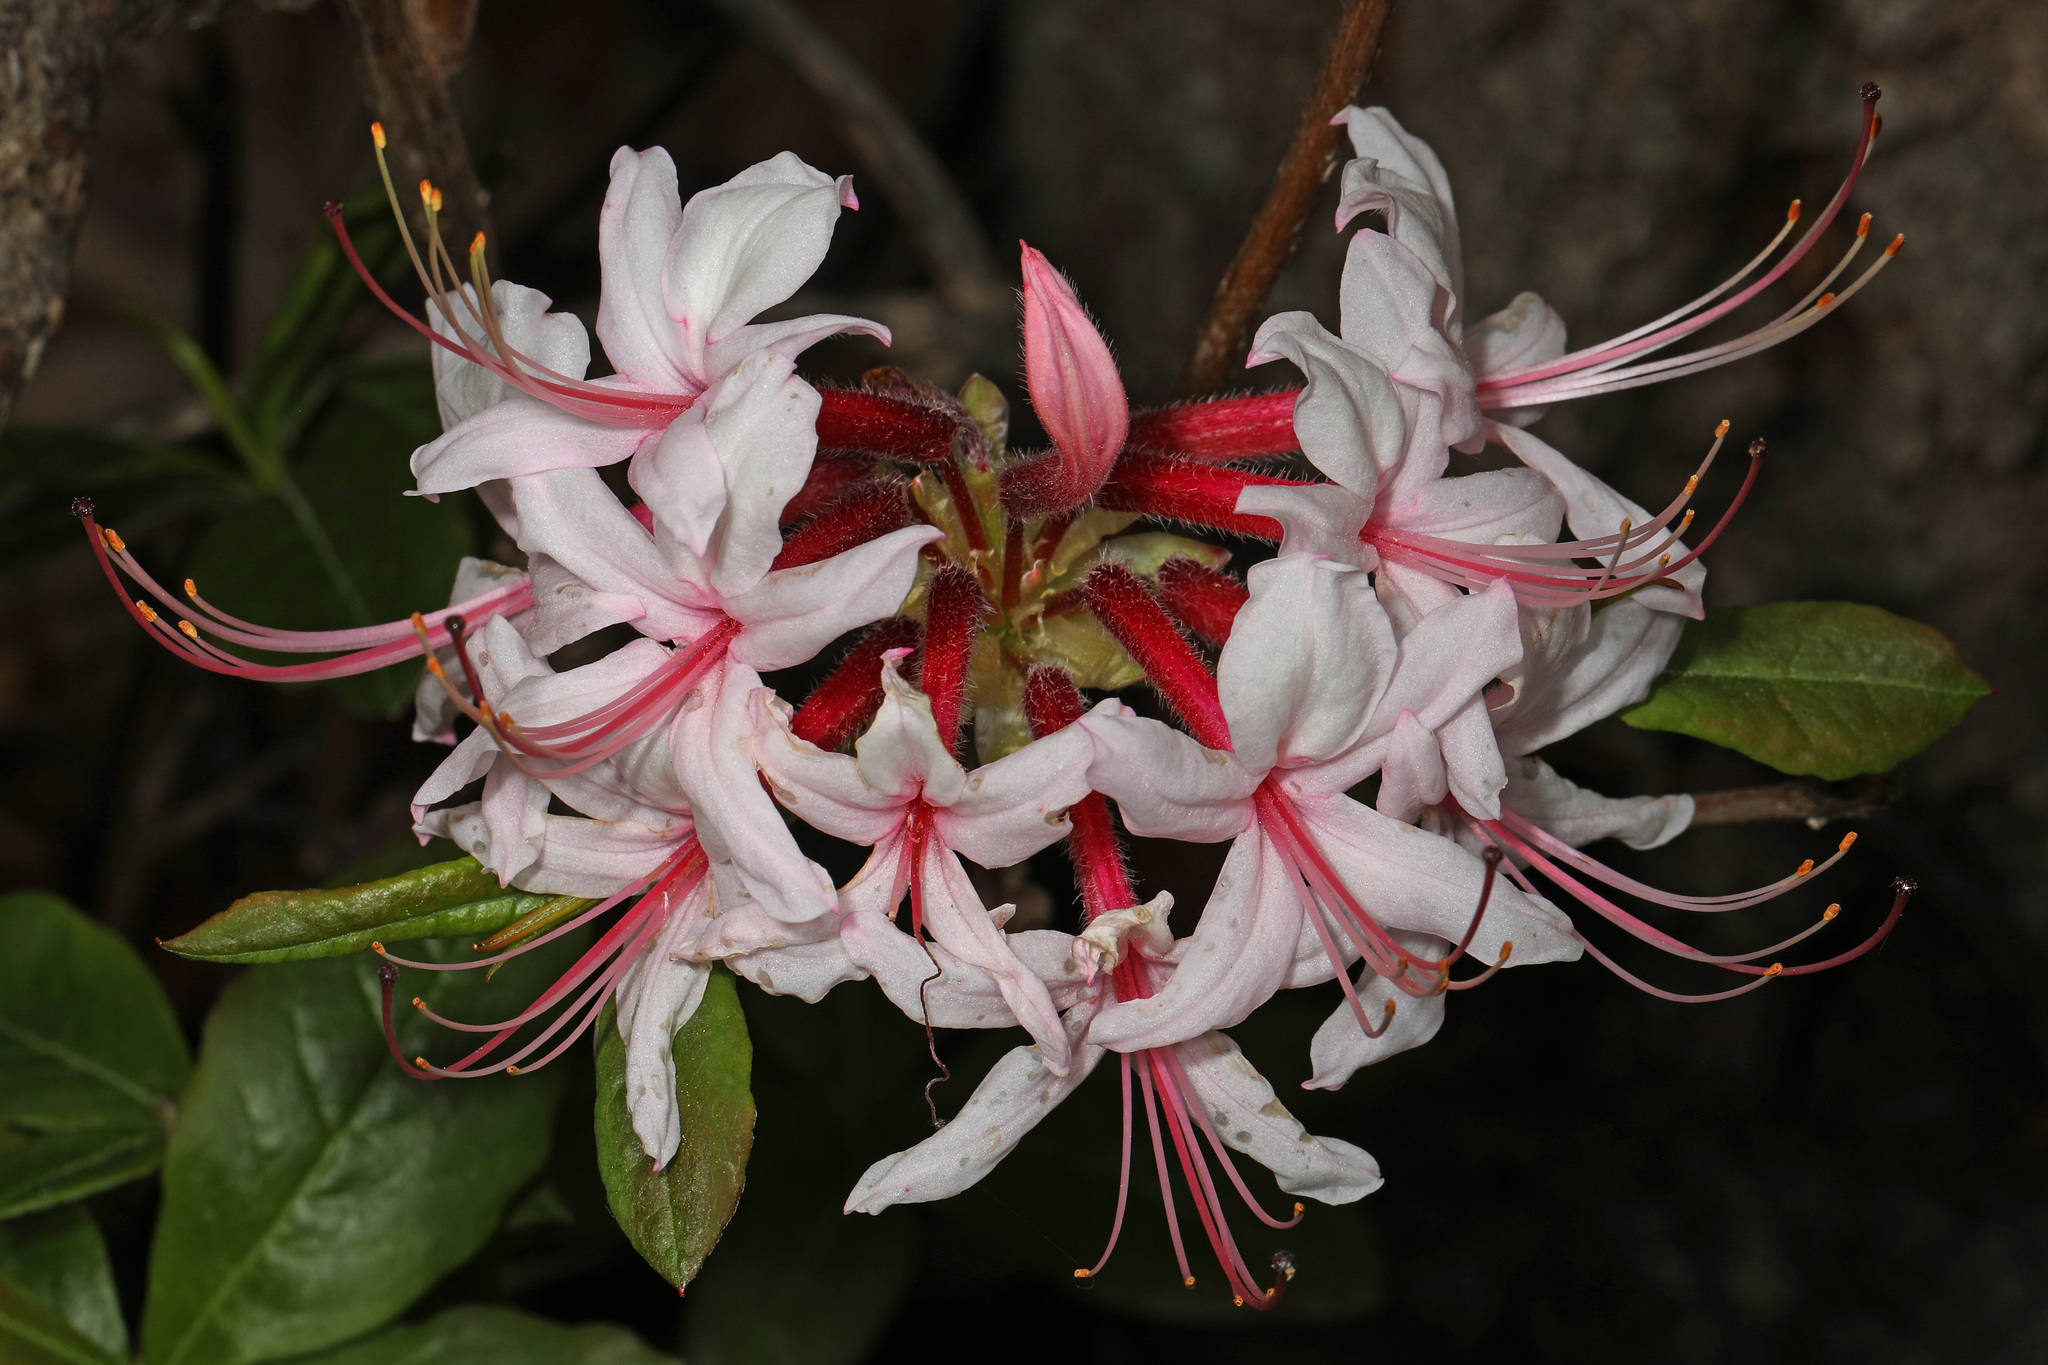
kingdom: Plantae
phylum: Tracheophyta
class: Magnoliopsida
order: Ericales
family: Ericaceae
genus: Rhododendron
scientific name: Rhododendron periclymenoides
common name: Election-pink
